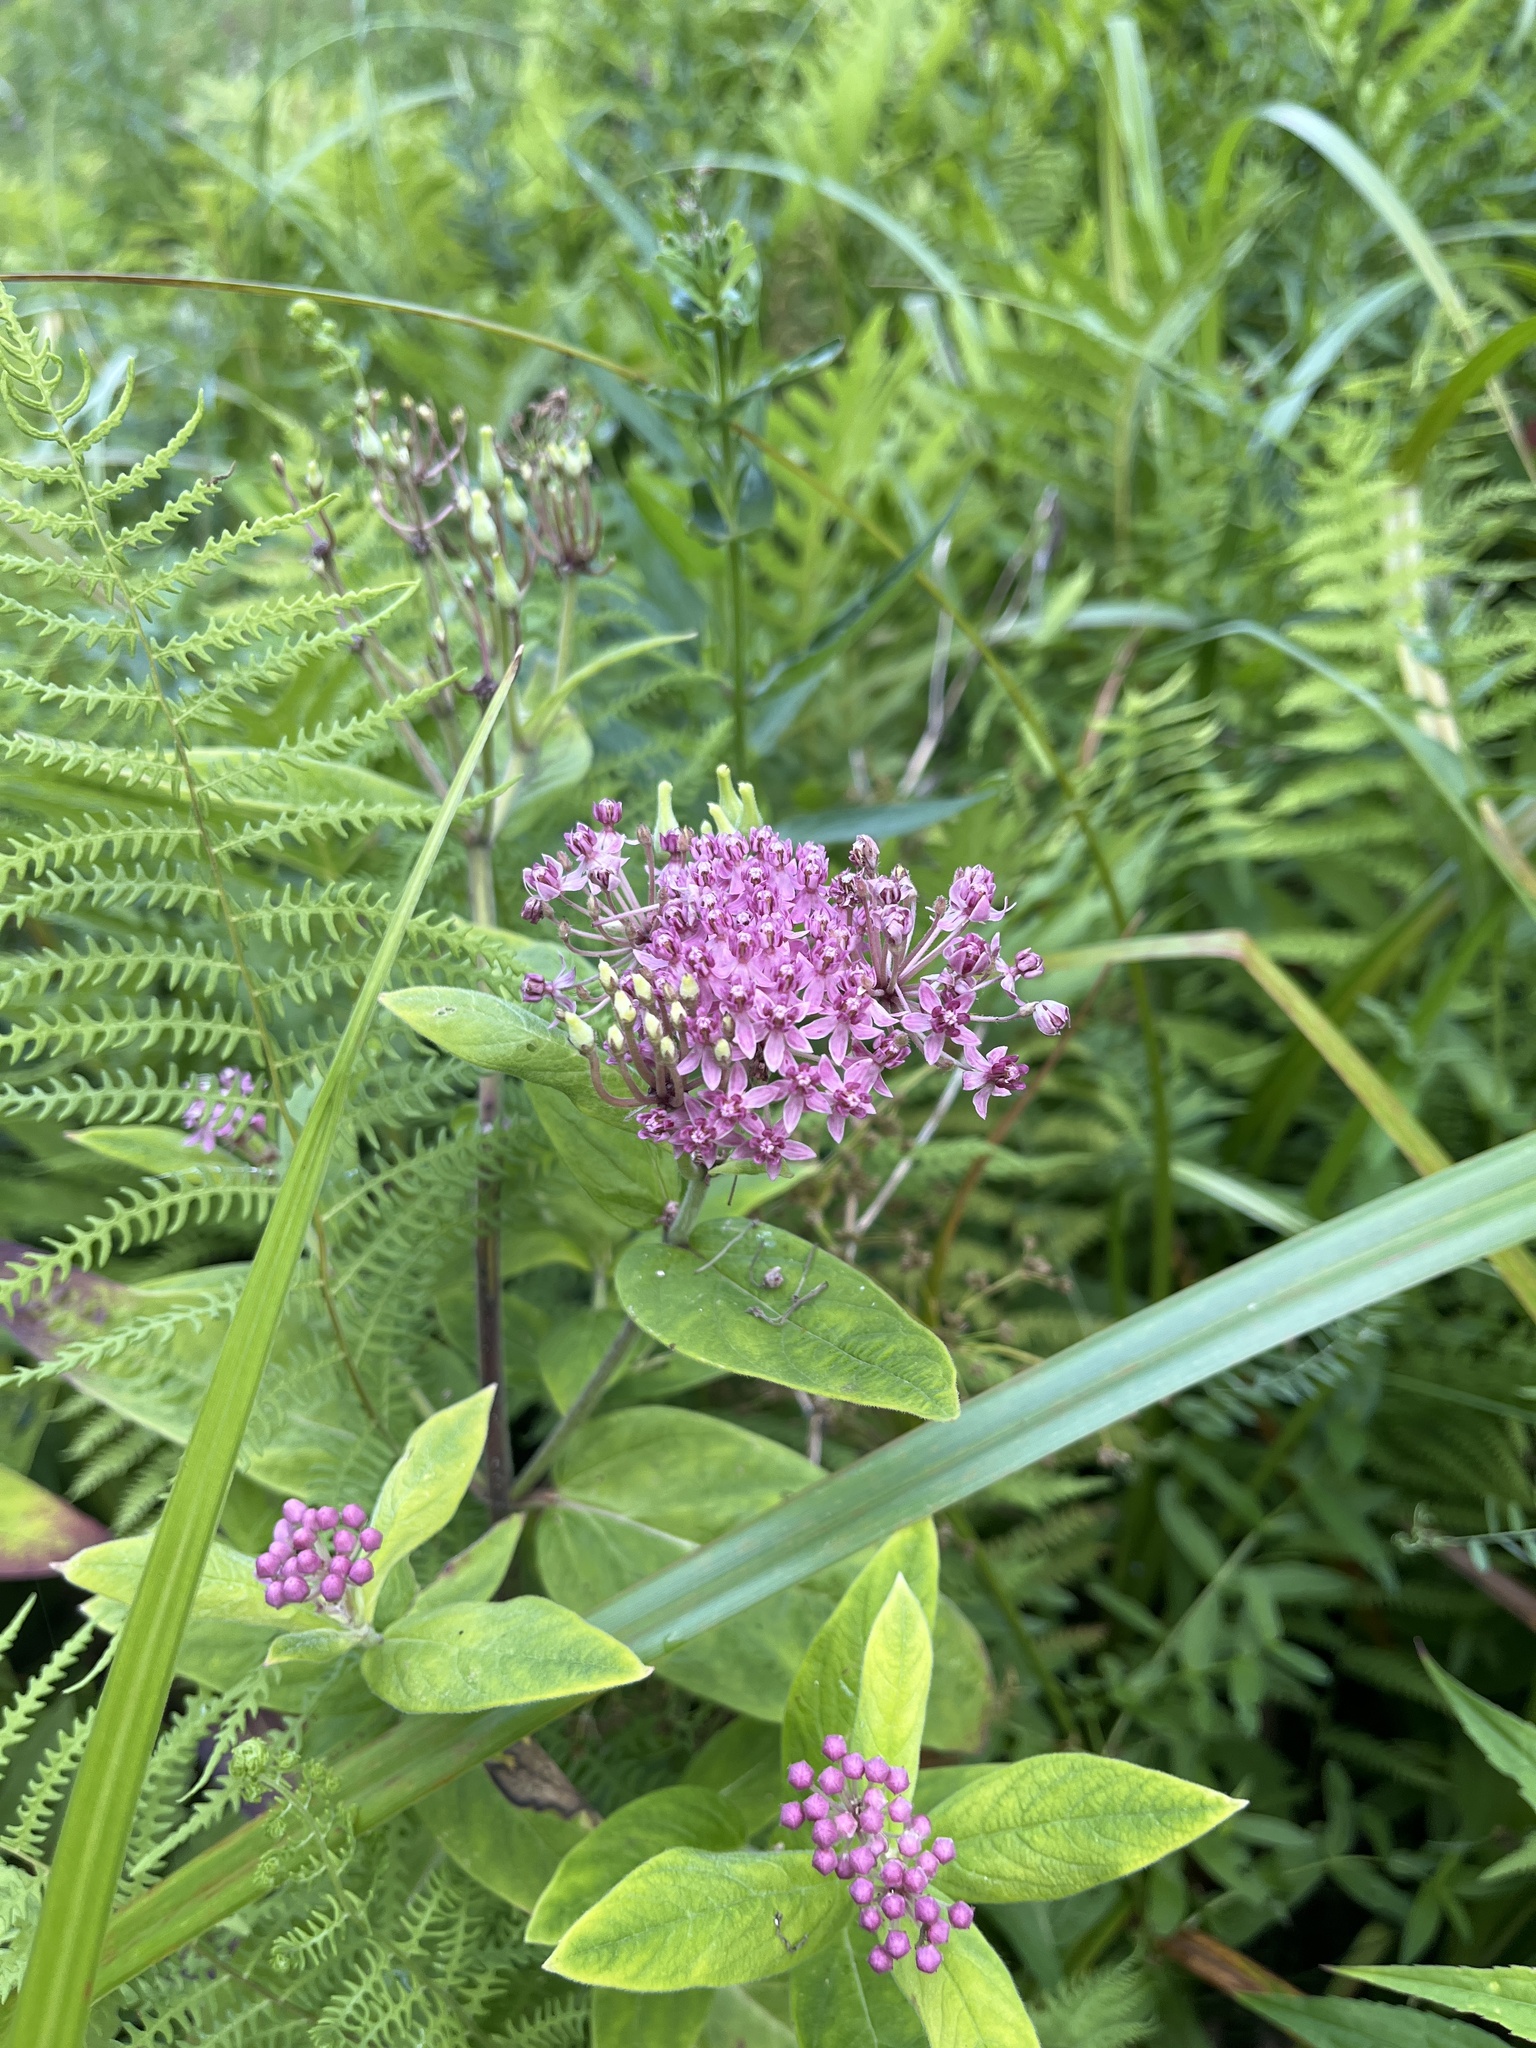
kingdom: Plantae
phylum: Tracheophyta
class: Magnoliopsida
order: Gentianales
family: Apocynaceae
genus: Asclepias
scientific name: Asclepias incarnata
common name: Swamp milkweed
